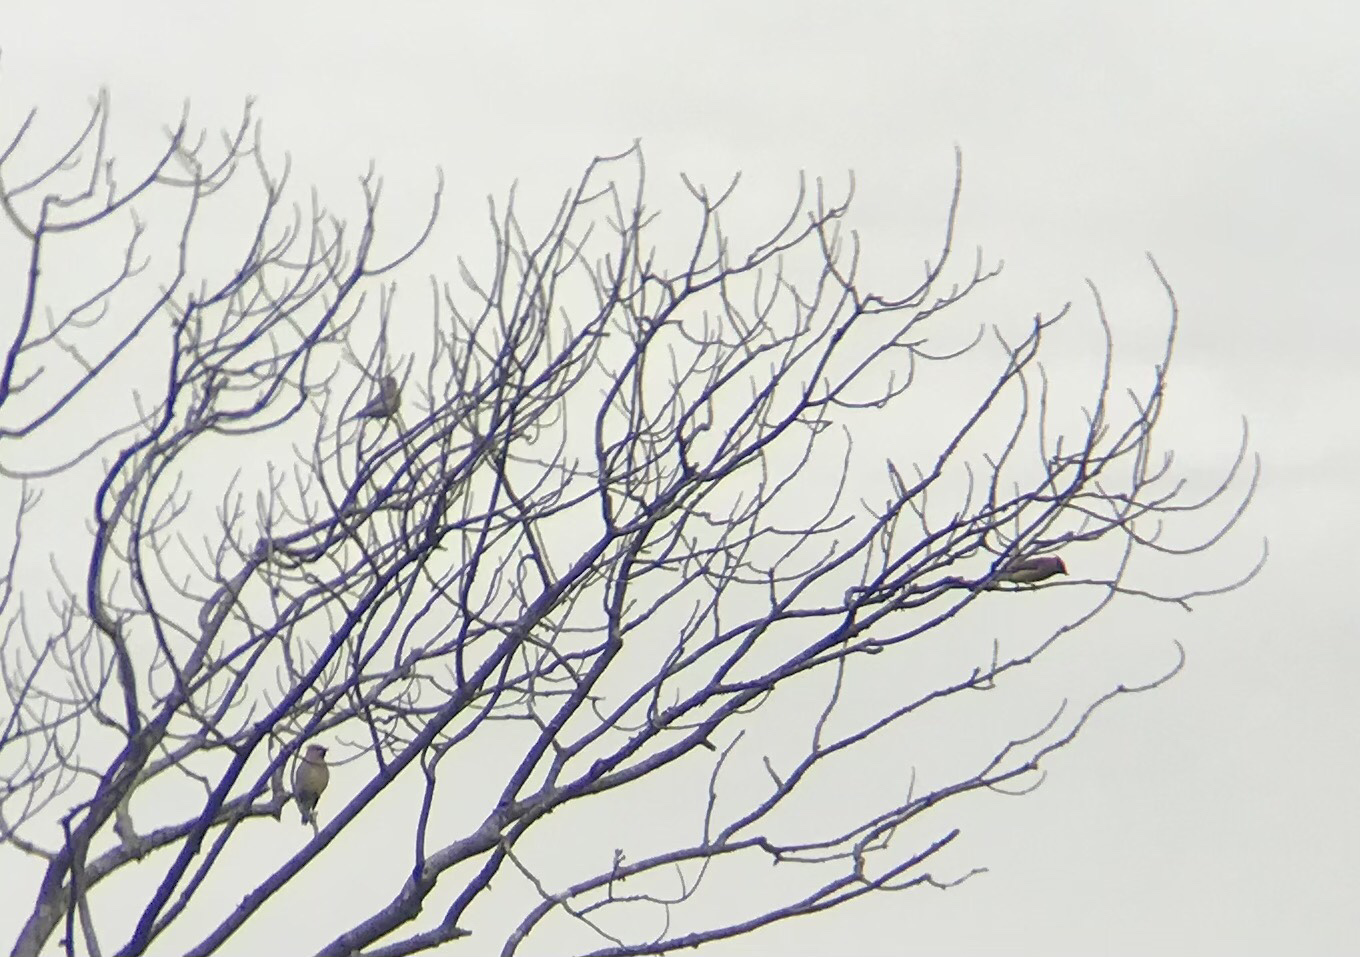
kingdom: Animalia
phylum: Chordata
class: Aves
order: Passeriformes
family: Bombycillidae
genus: Bombycilla
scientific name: Bombycilla cedrorum
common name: Cedar waxwing
